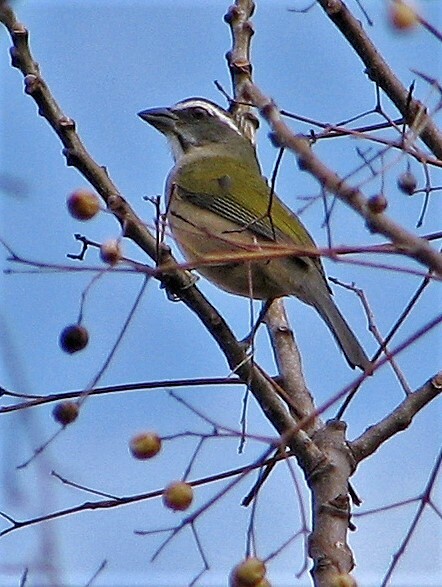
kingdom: Animalia
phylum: Chordata
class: Aves
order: Passeriformes
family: Thraupidae
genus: Saltator
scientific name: Saltator similis
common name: Green-winged saltator
